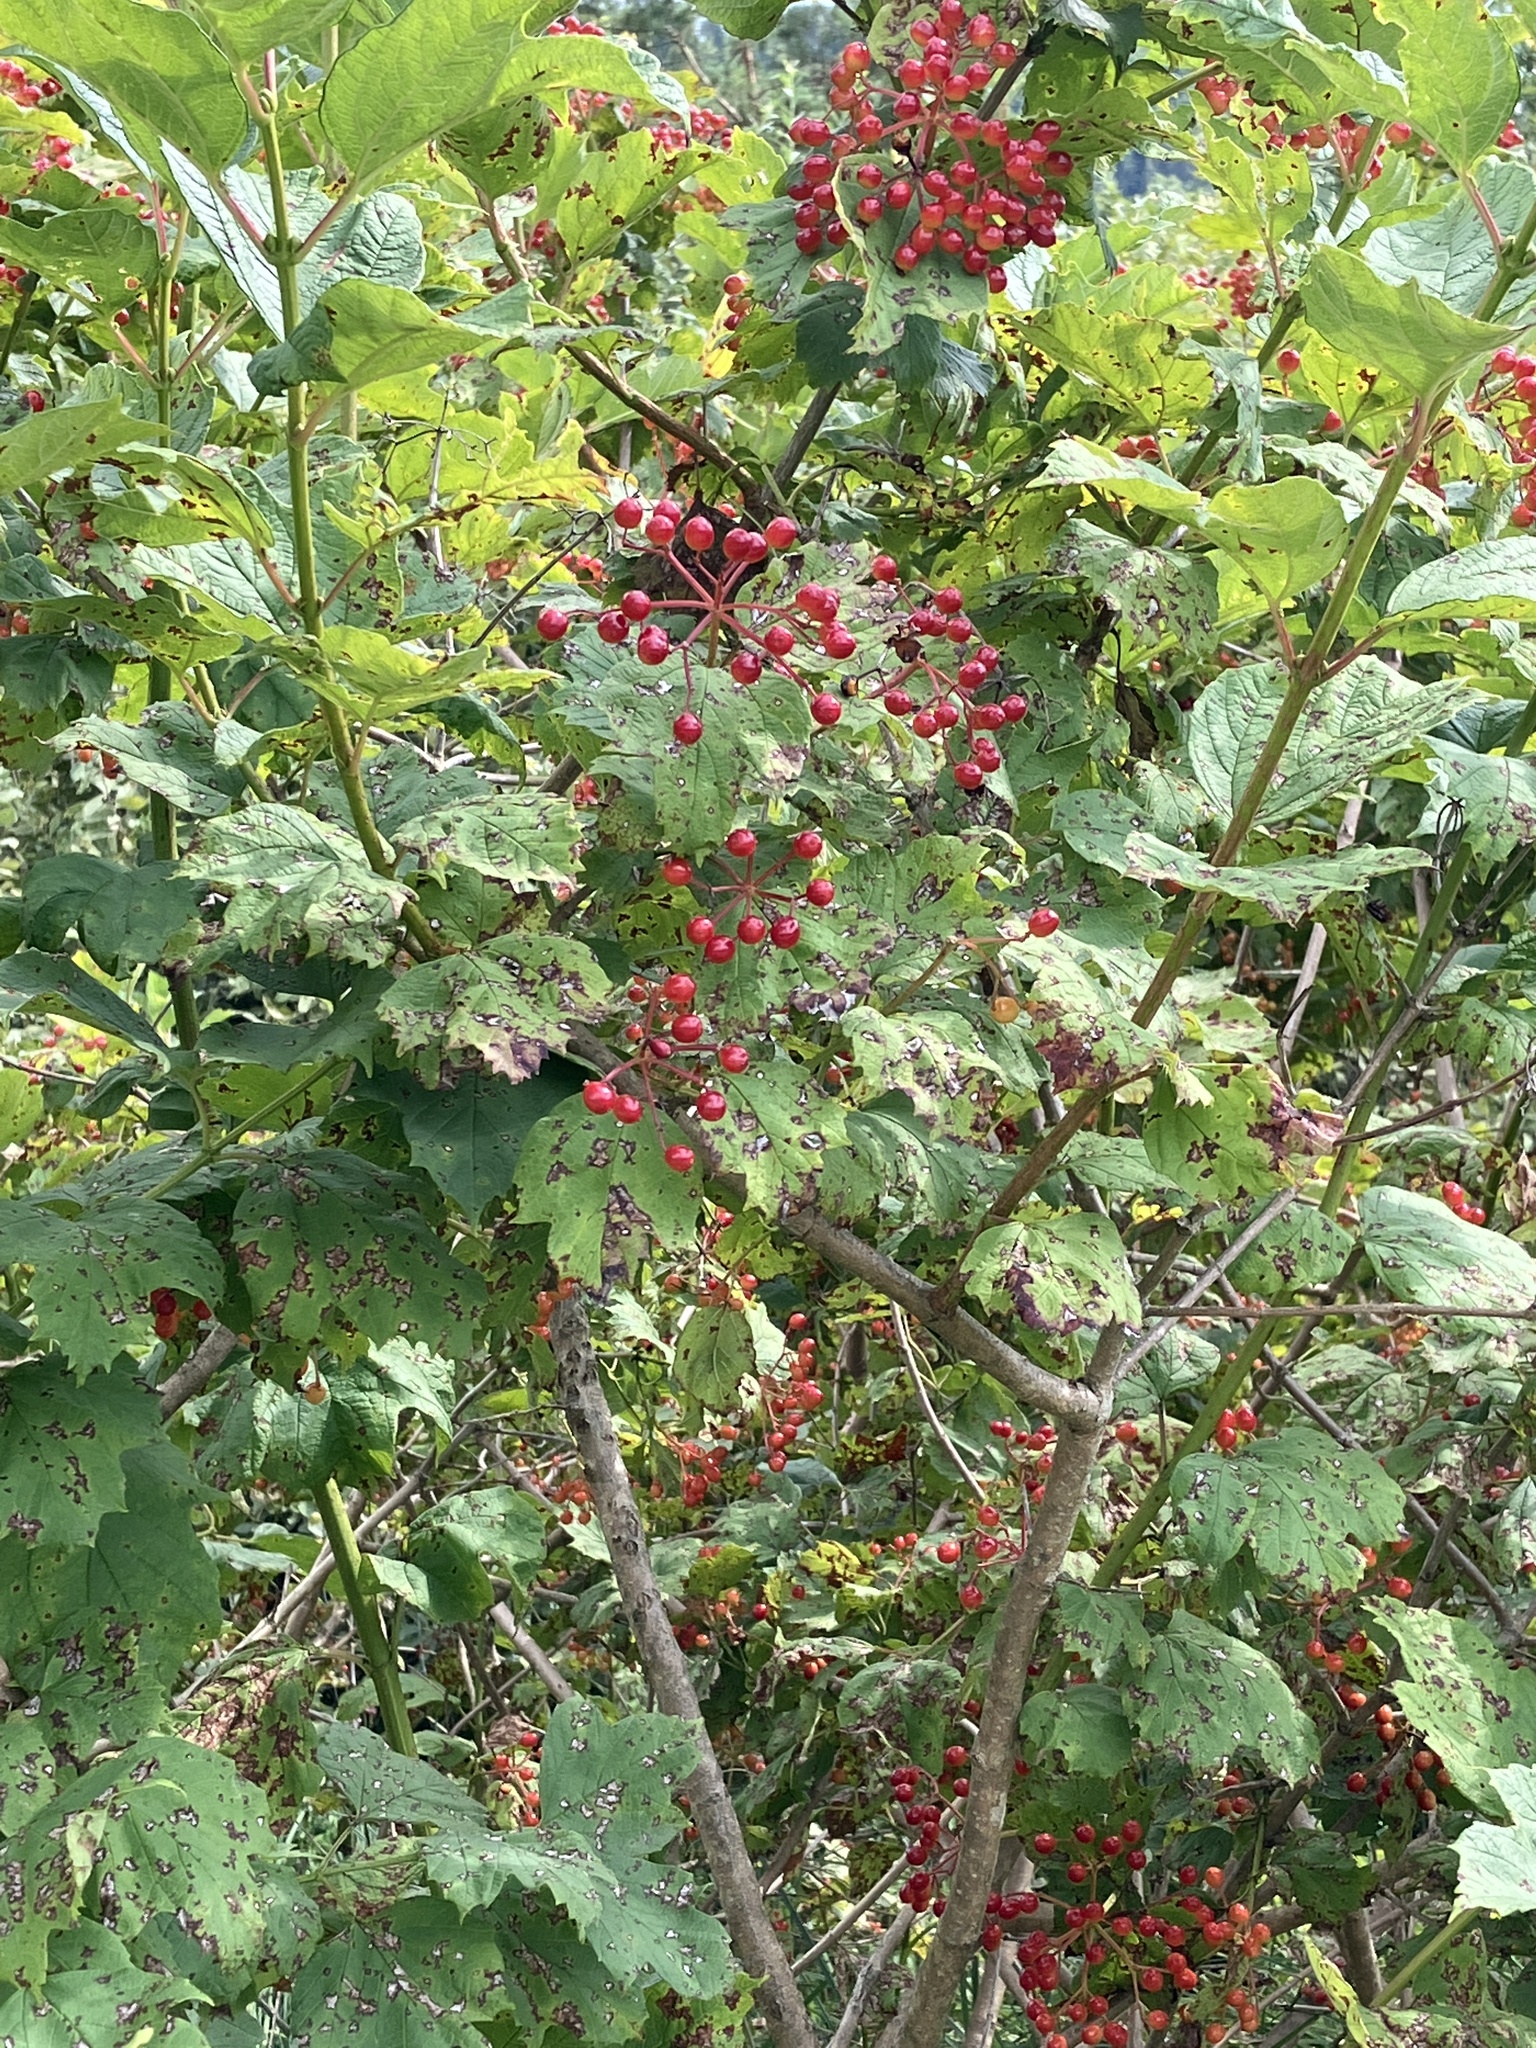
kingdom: Plantae
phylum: Tracheophyta
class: Magnoliopsida
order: Dipsacales
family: Viburnaceae
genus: Viburnum
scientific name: Viburnum opulus
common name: Guelder-rose
